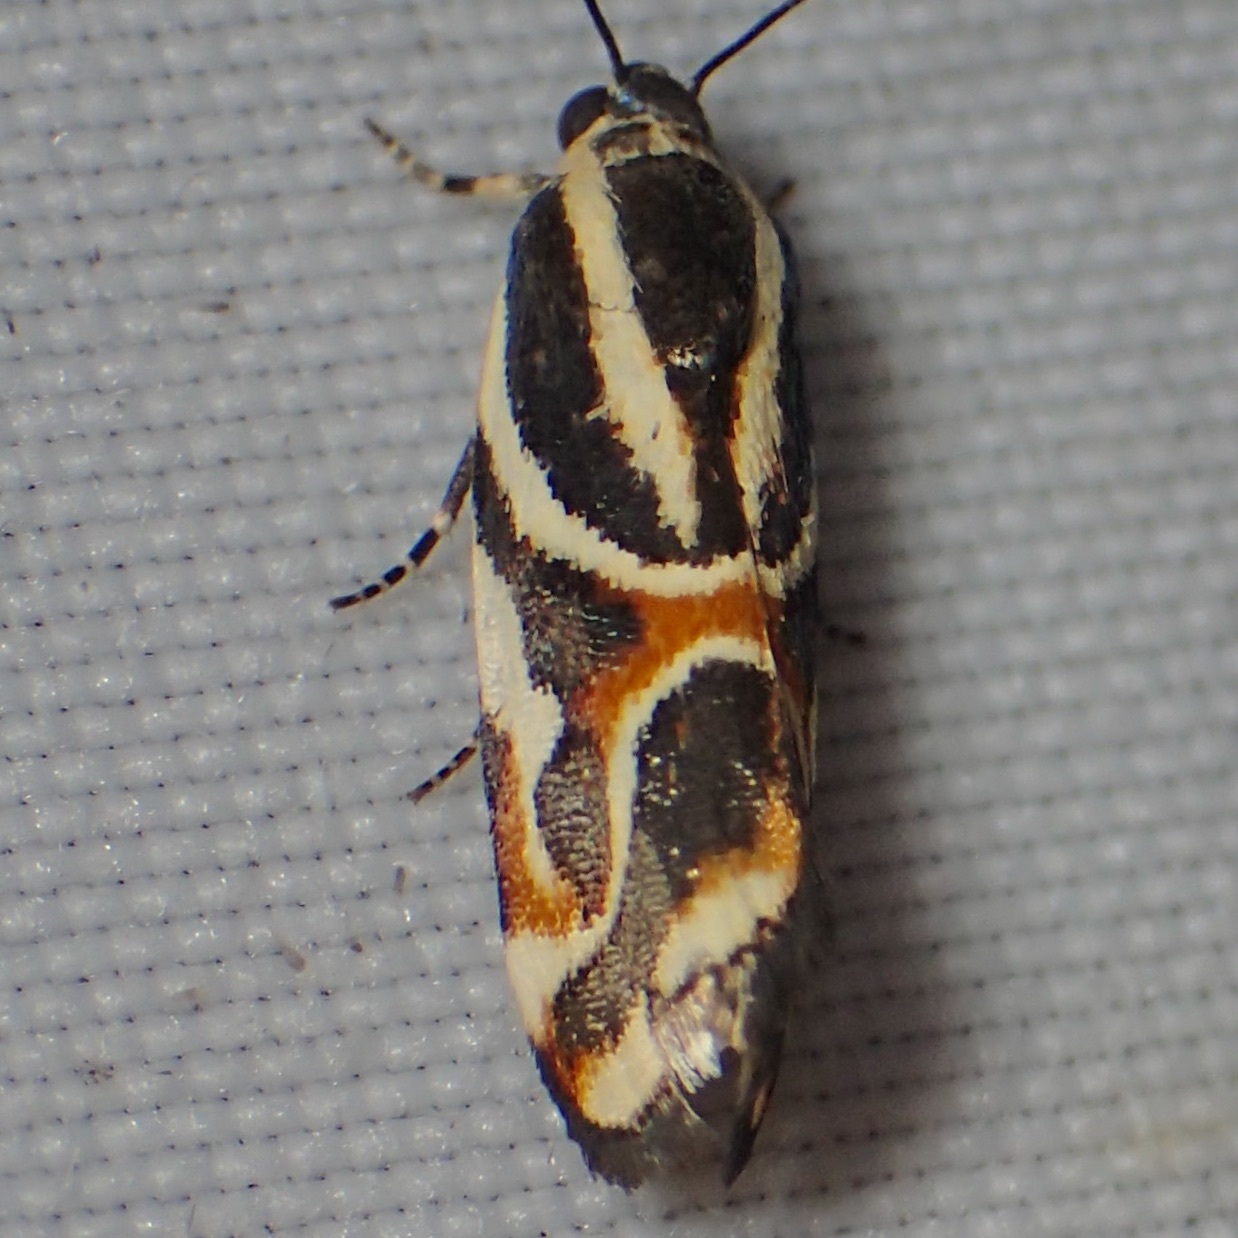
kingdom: Animalia
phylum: Arthropoda
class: Insecta
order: Lepidoptera
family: Noctuidae
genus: Spragueia
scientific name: Spragueia magnifica
